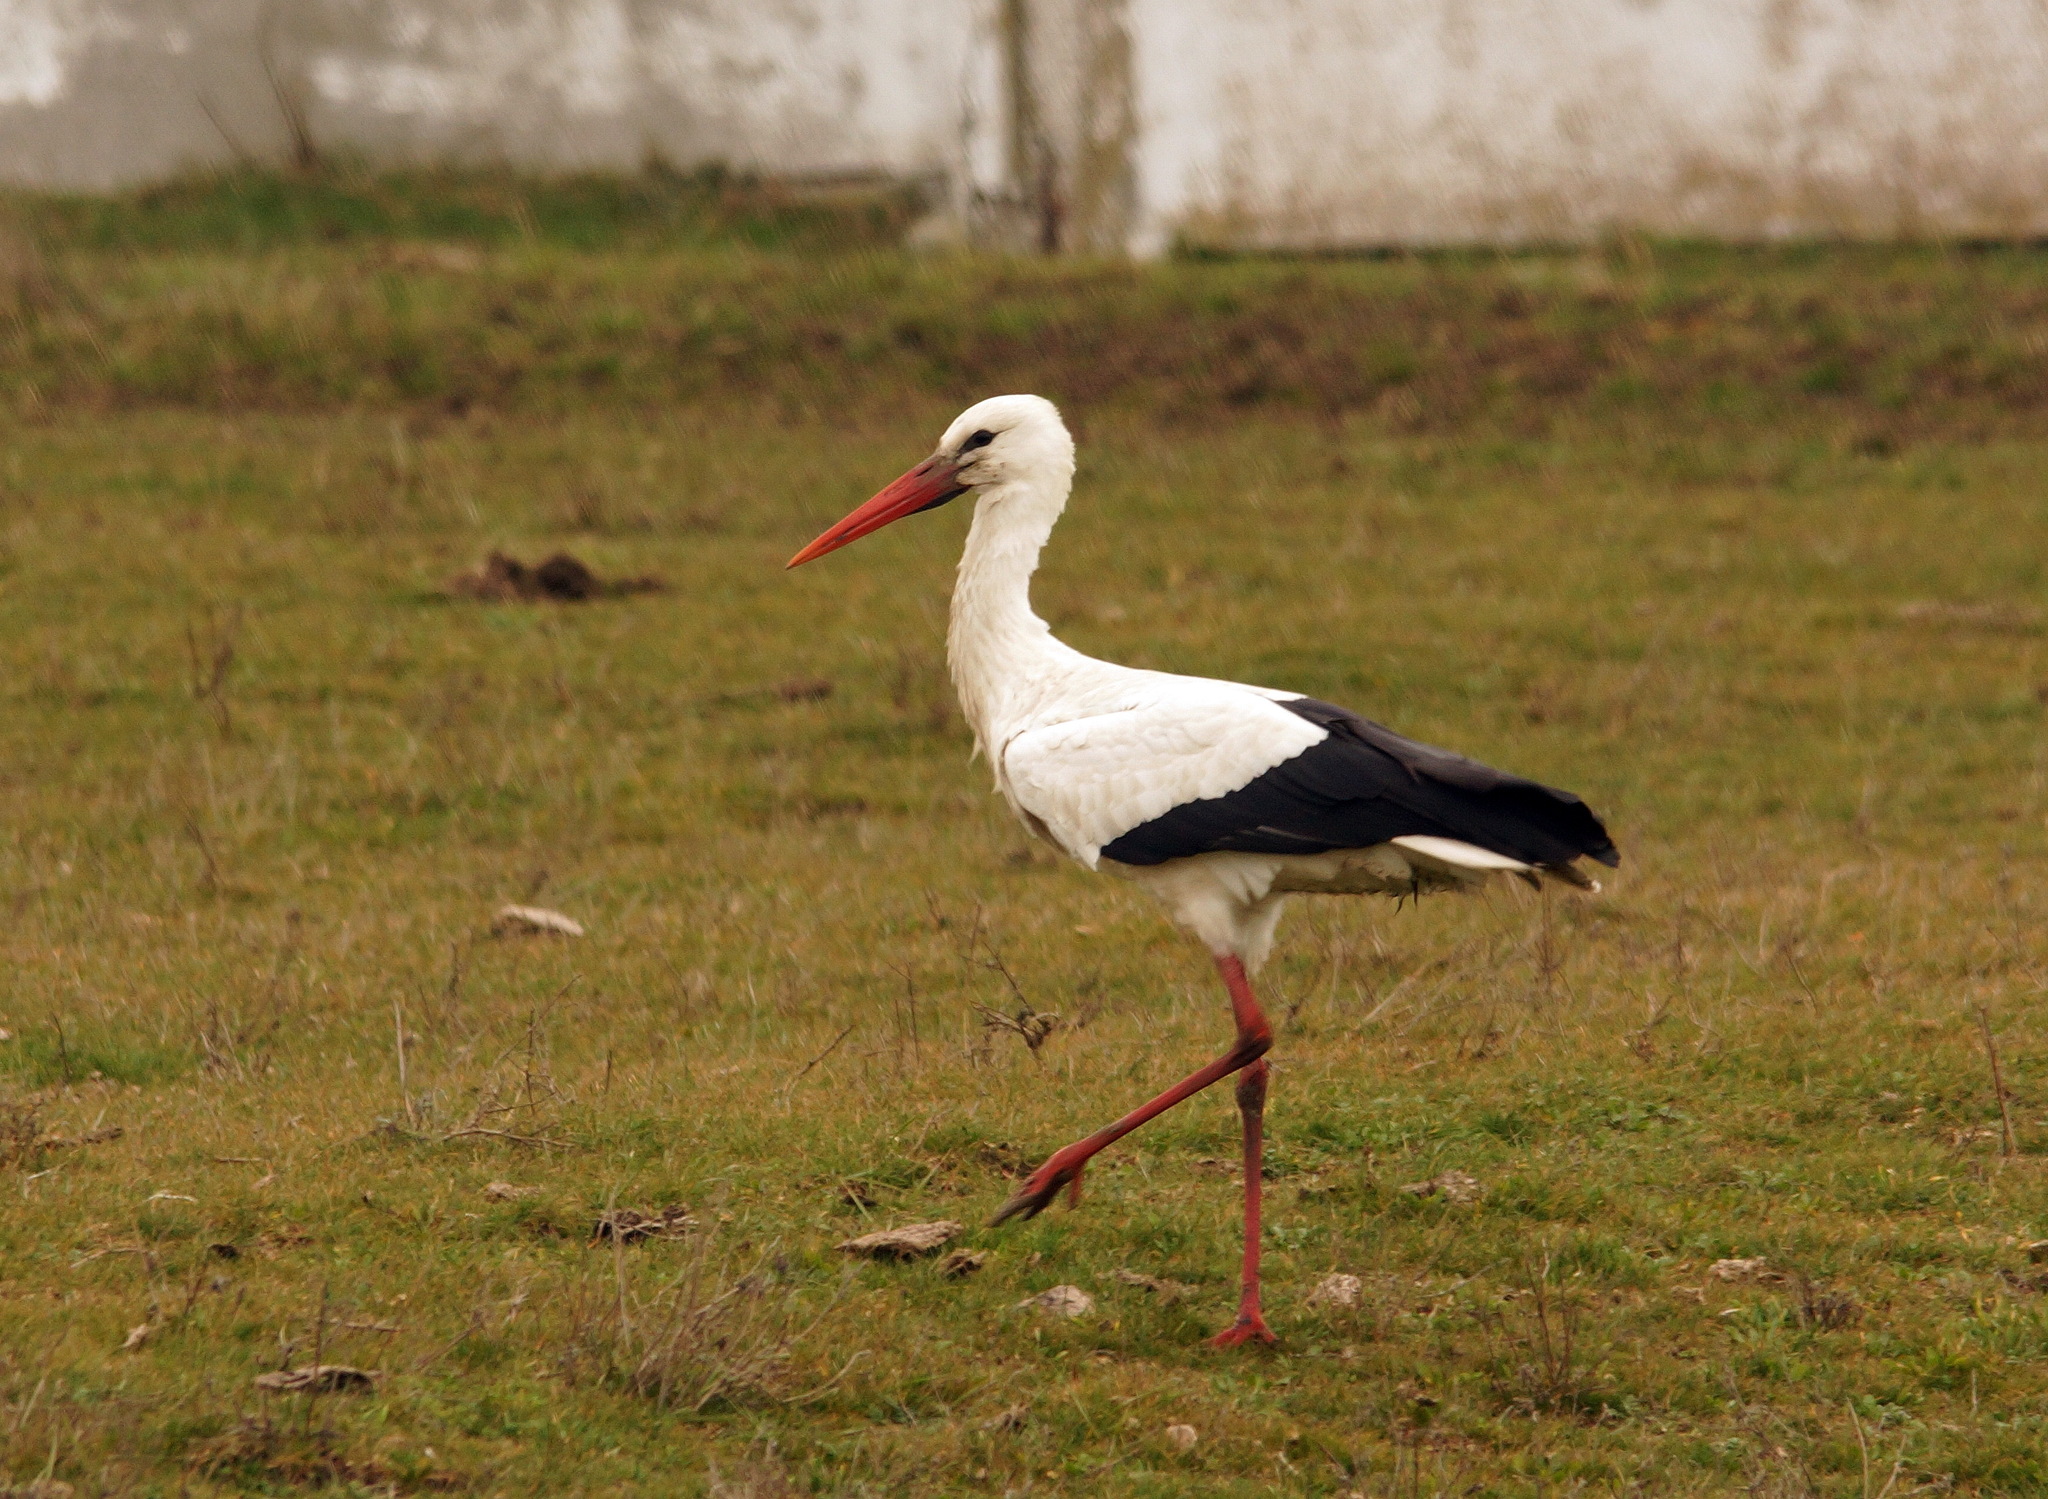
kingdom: Animalia
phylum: Chordata
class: Aves
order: Ciconiiformes
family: Ciconiidae
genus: Ciconia
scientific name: Ciconia ciconia
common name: White stork
